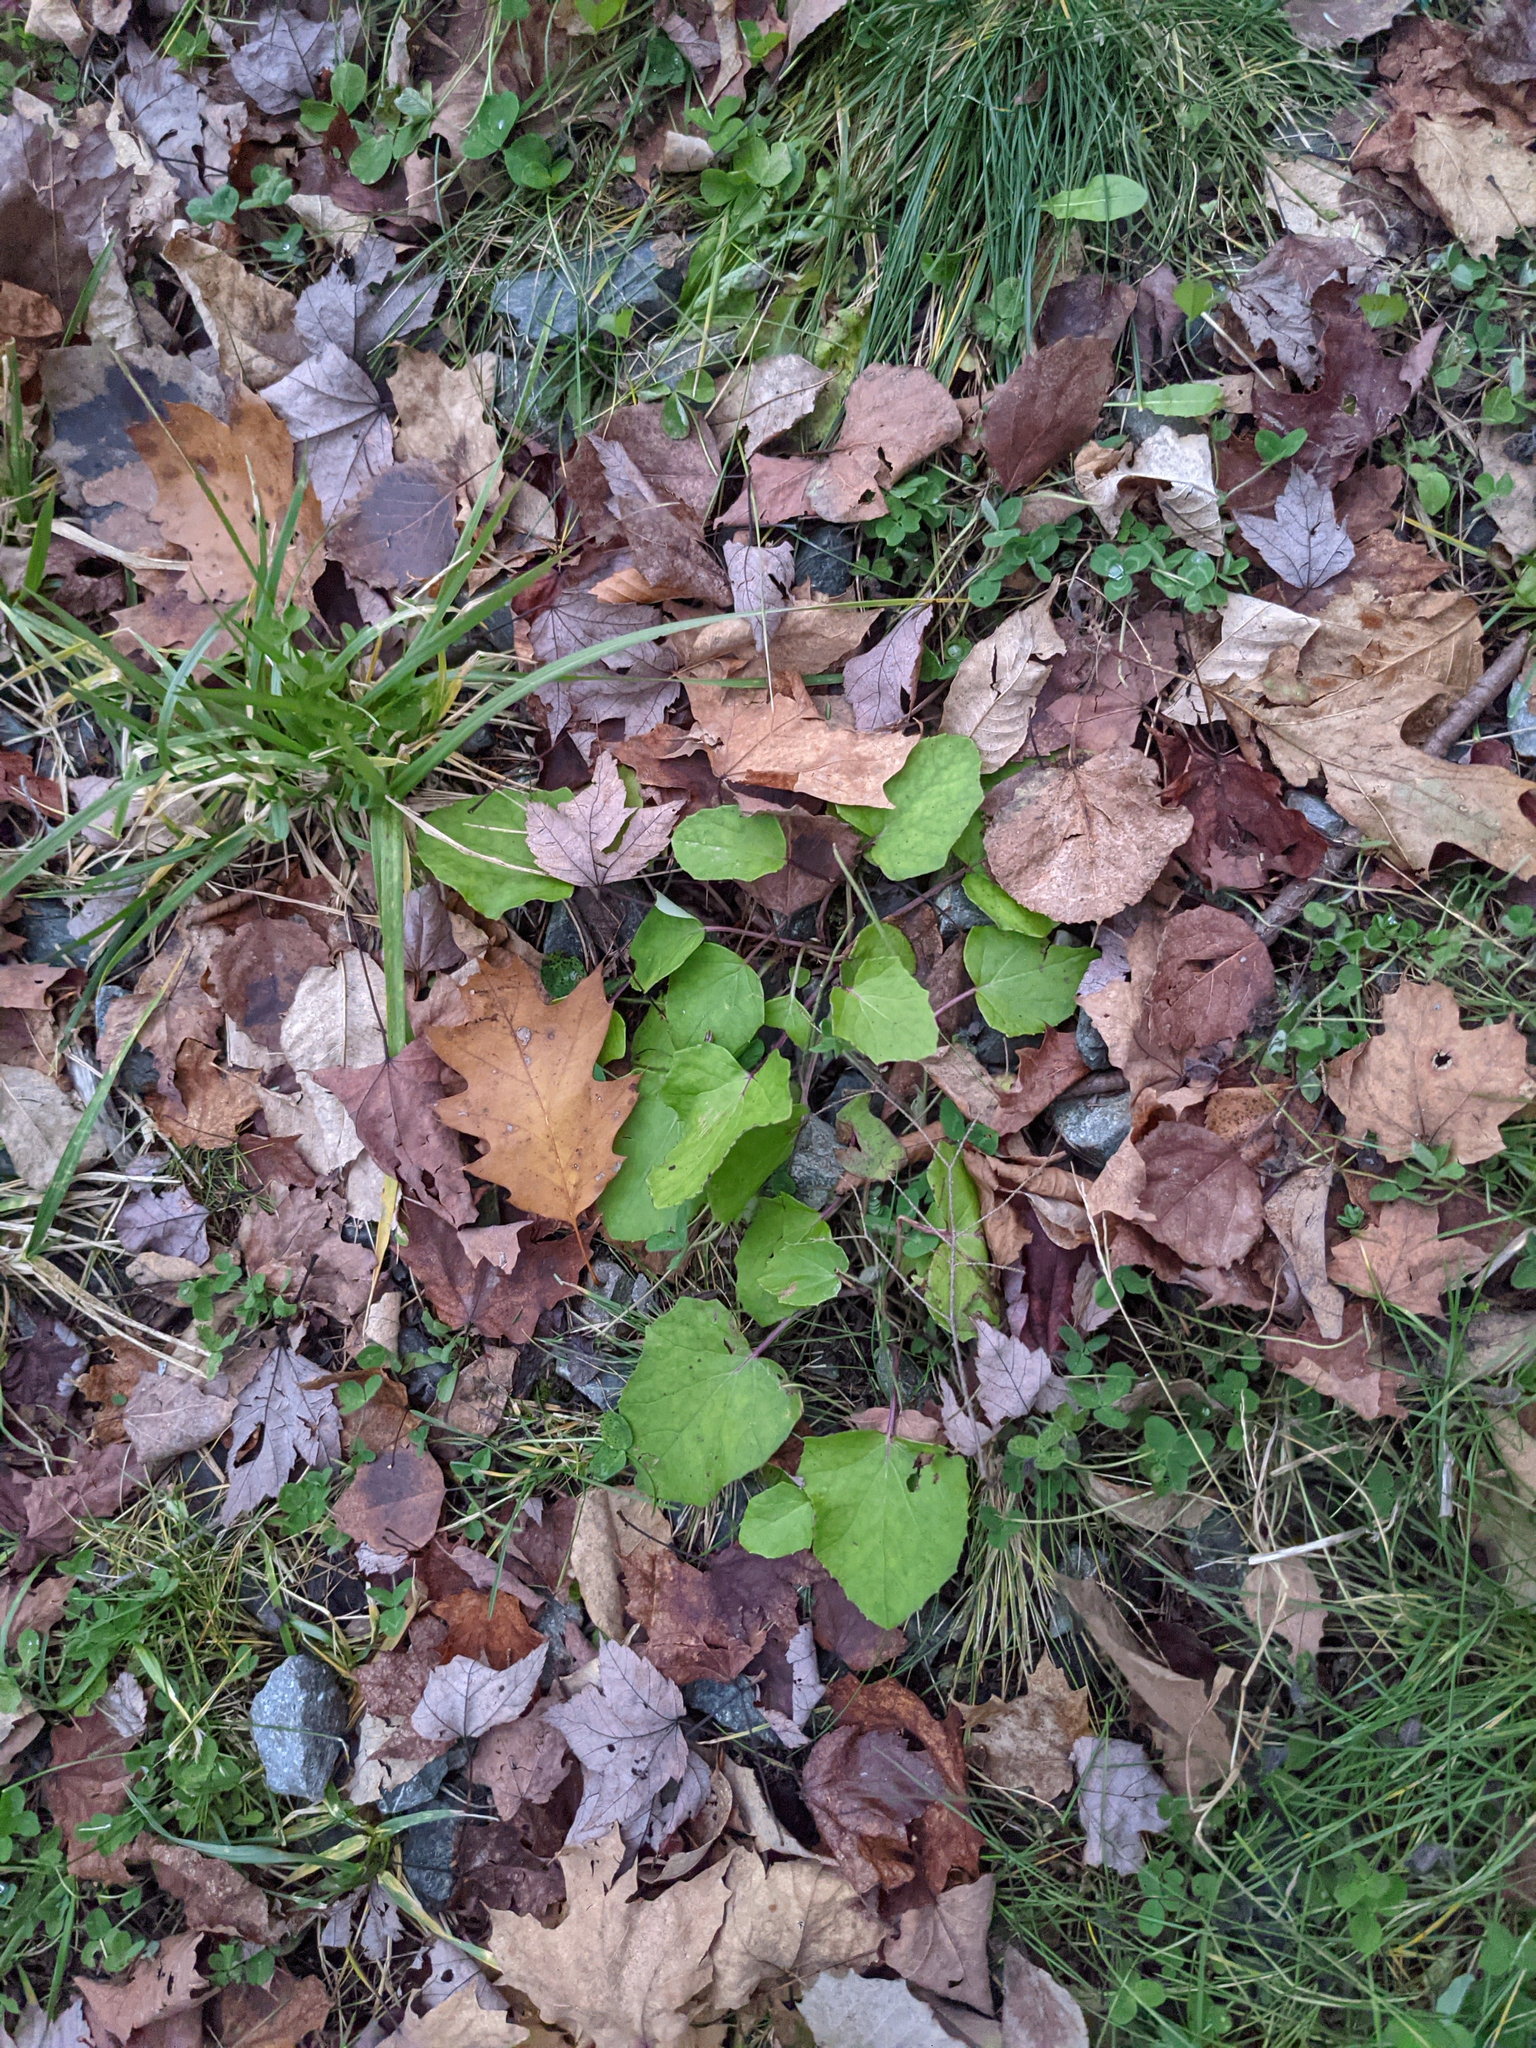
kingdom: Plantae
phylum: Tracheophyta
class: Magnoliopsida
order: Asterales
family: Asteraceae
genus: Tussilago
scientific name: Tussilago farfara
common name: Coltsfoot
